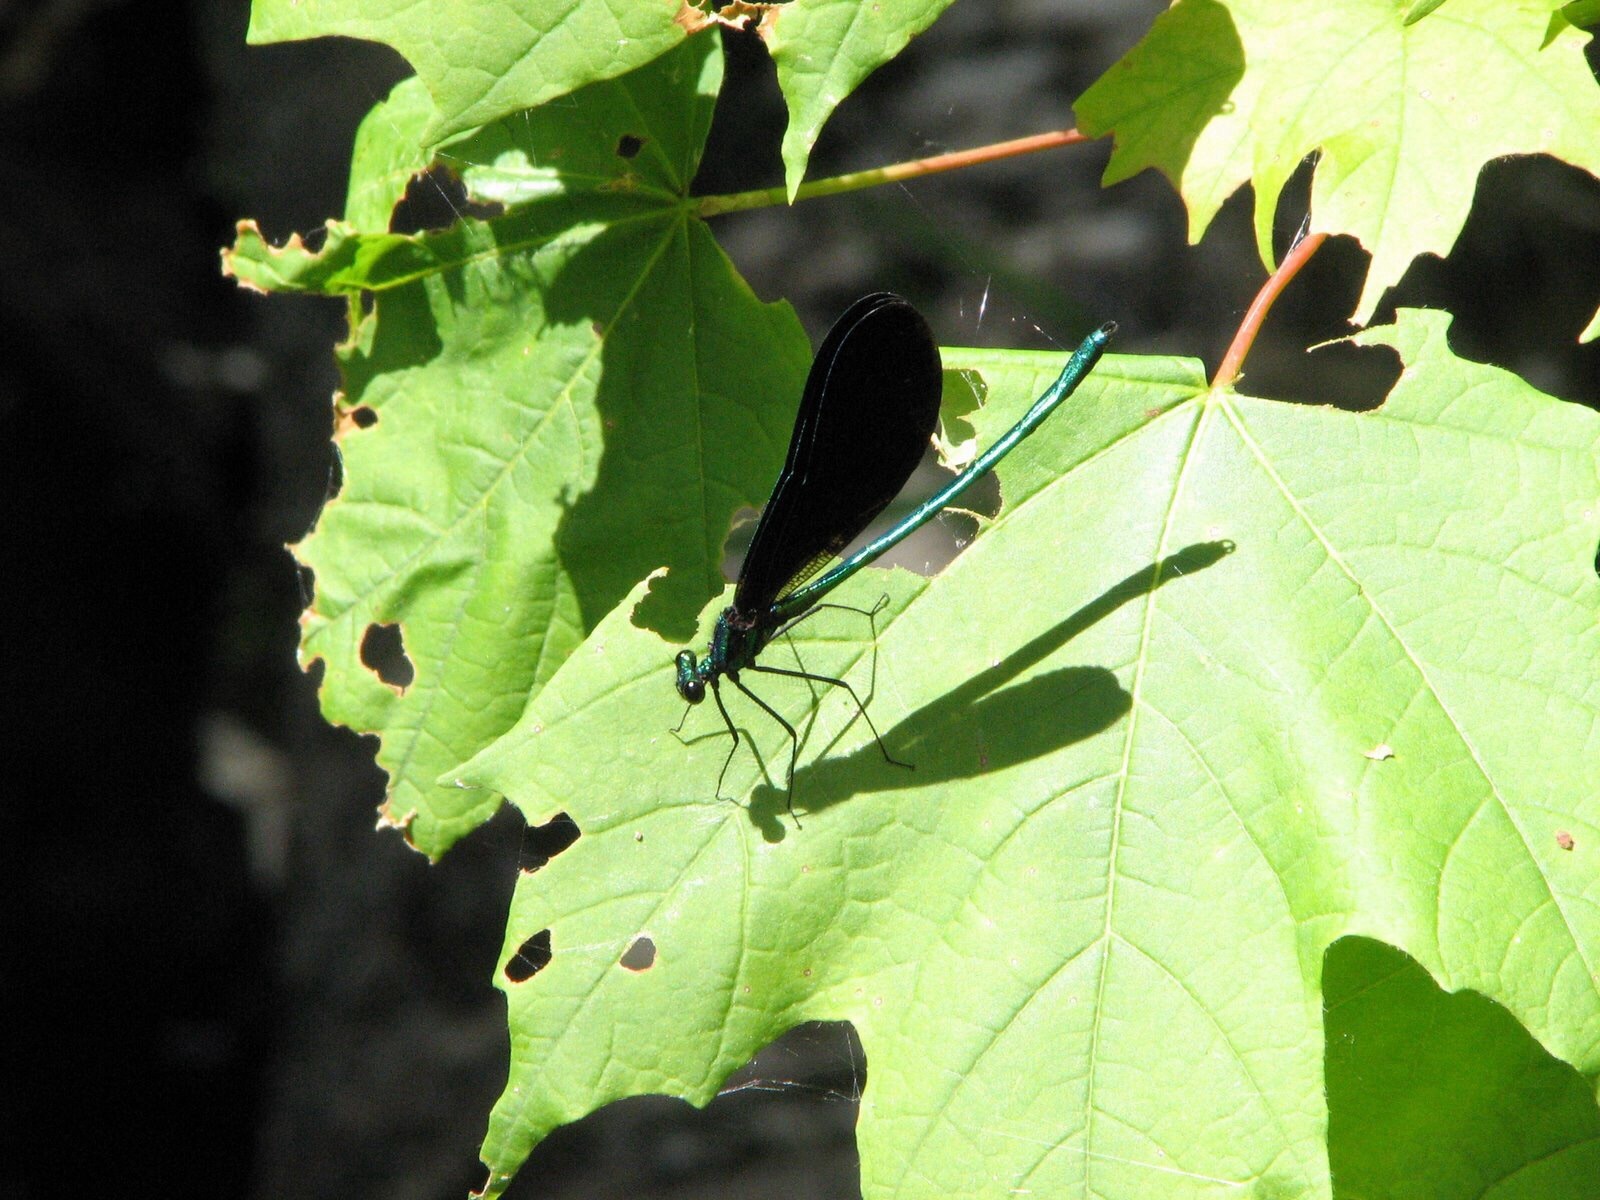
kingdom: Animalia
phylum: Arthropoda
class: Insecta
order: Odonata
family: Calopterygidae
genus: Calopteryx
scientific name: Calopteryx maculata
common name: Ebony jewelwing
